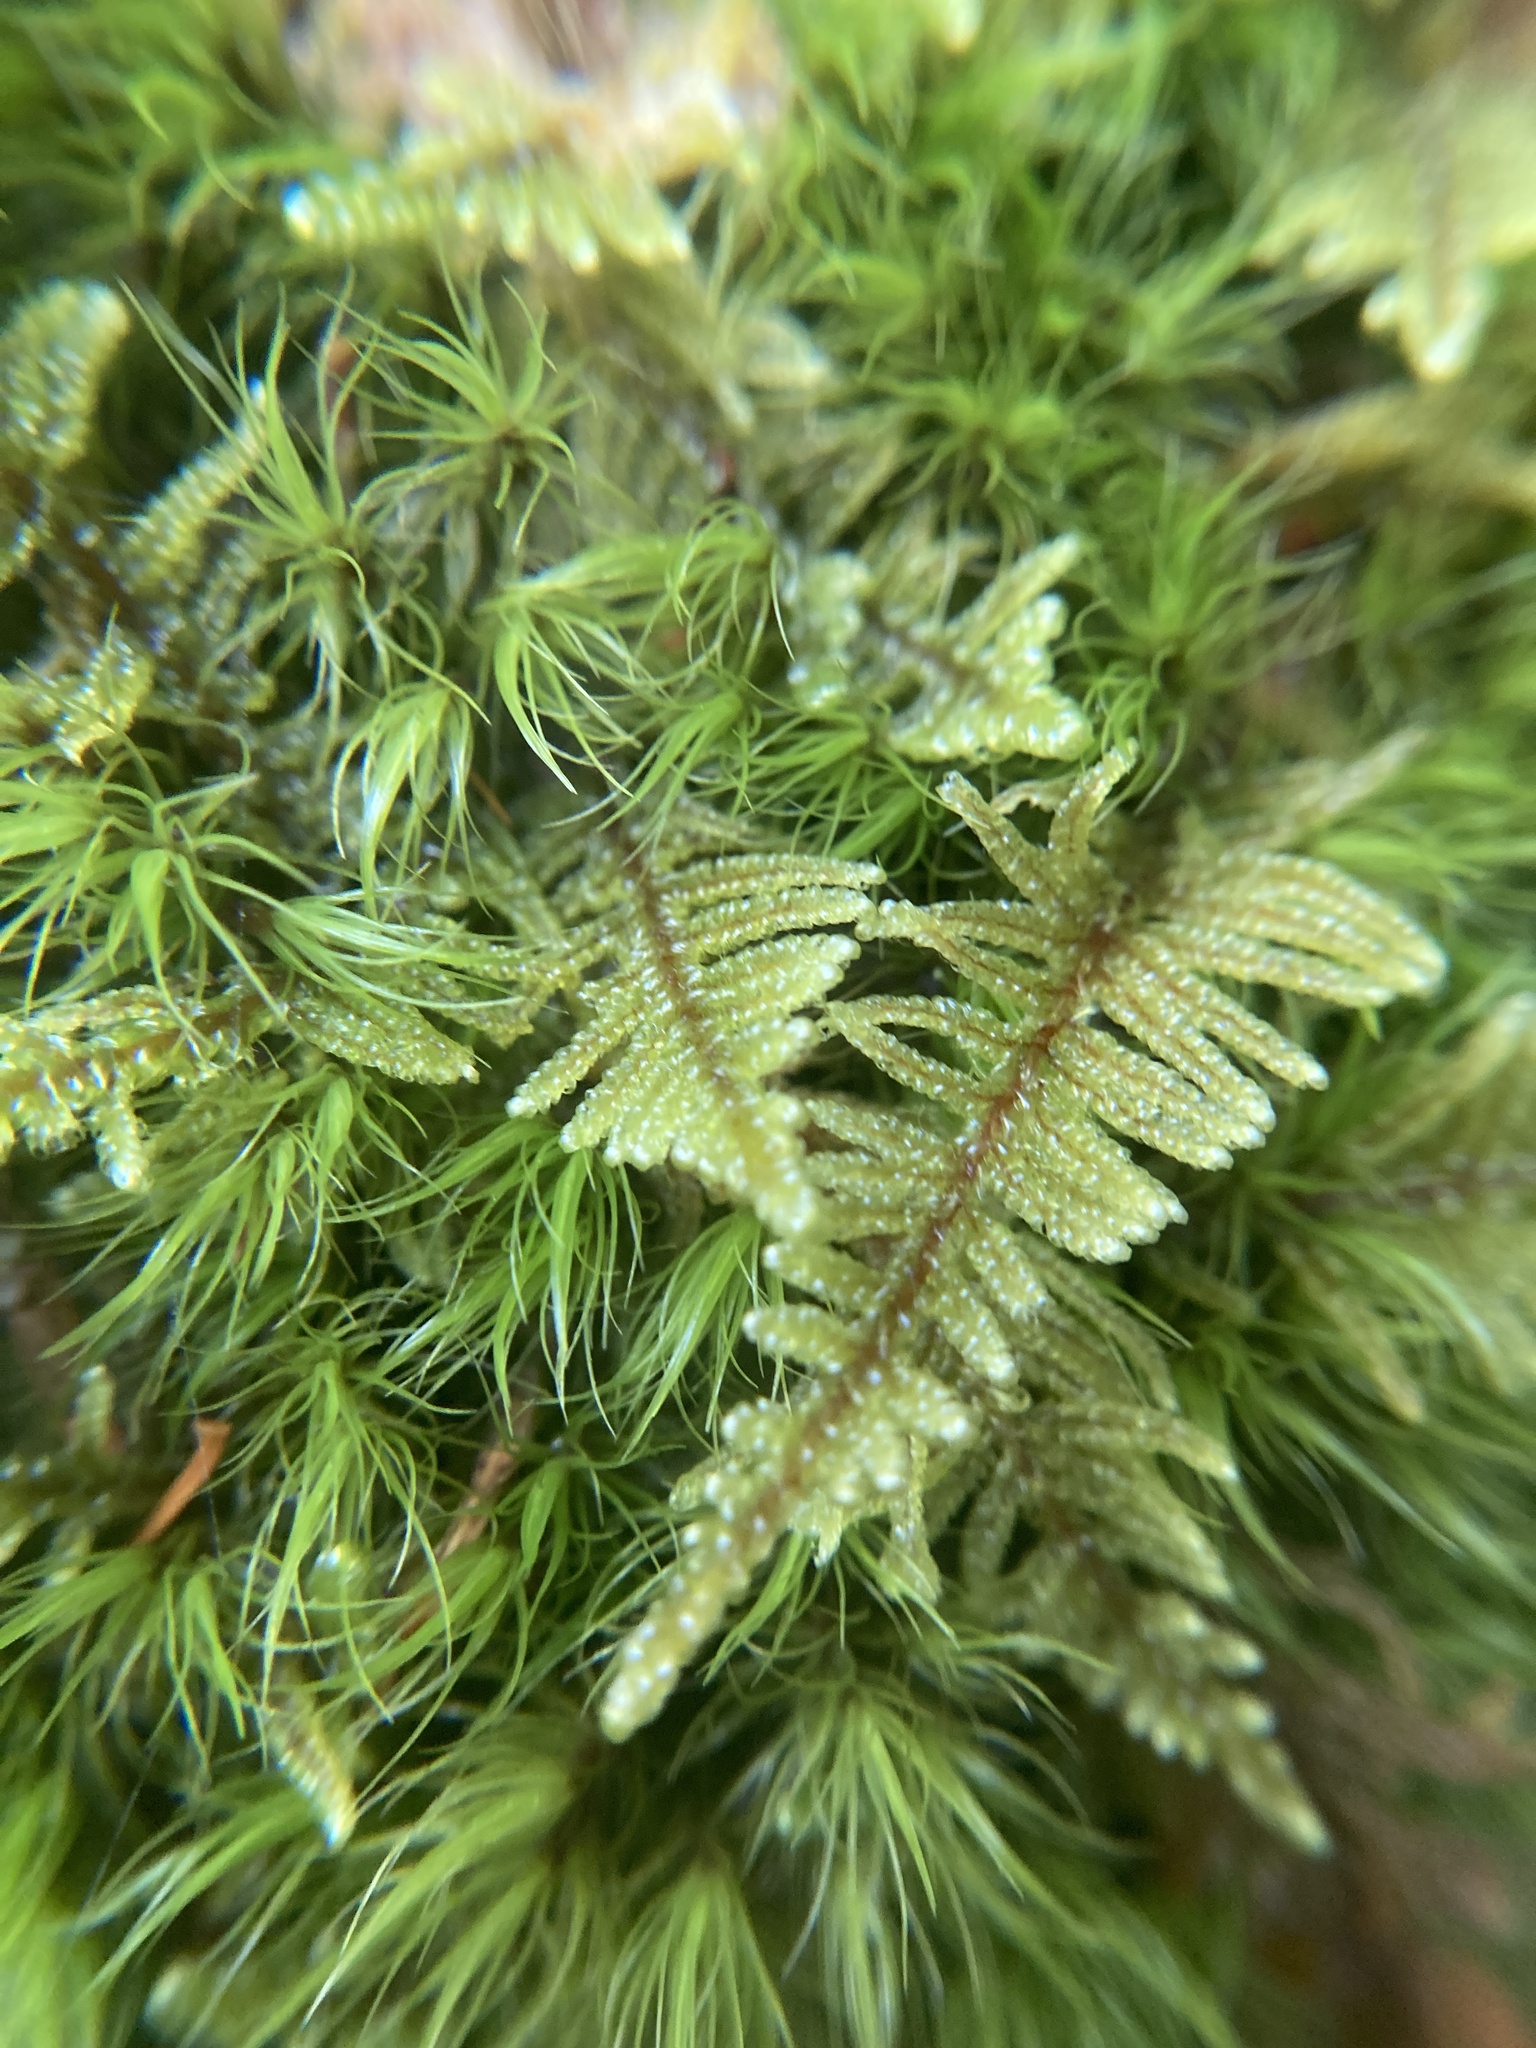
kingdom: Plantae
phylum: Bryophyta
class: Bryopsida
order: Hypnales
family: Callicladiaceae
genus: Callicladium
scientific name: Callicladium imponens
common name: Brocade moss
